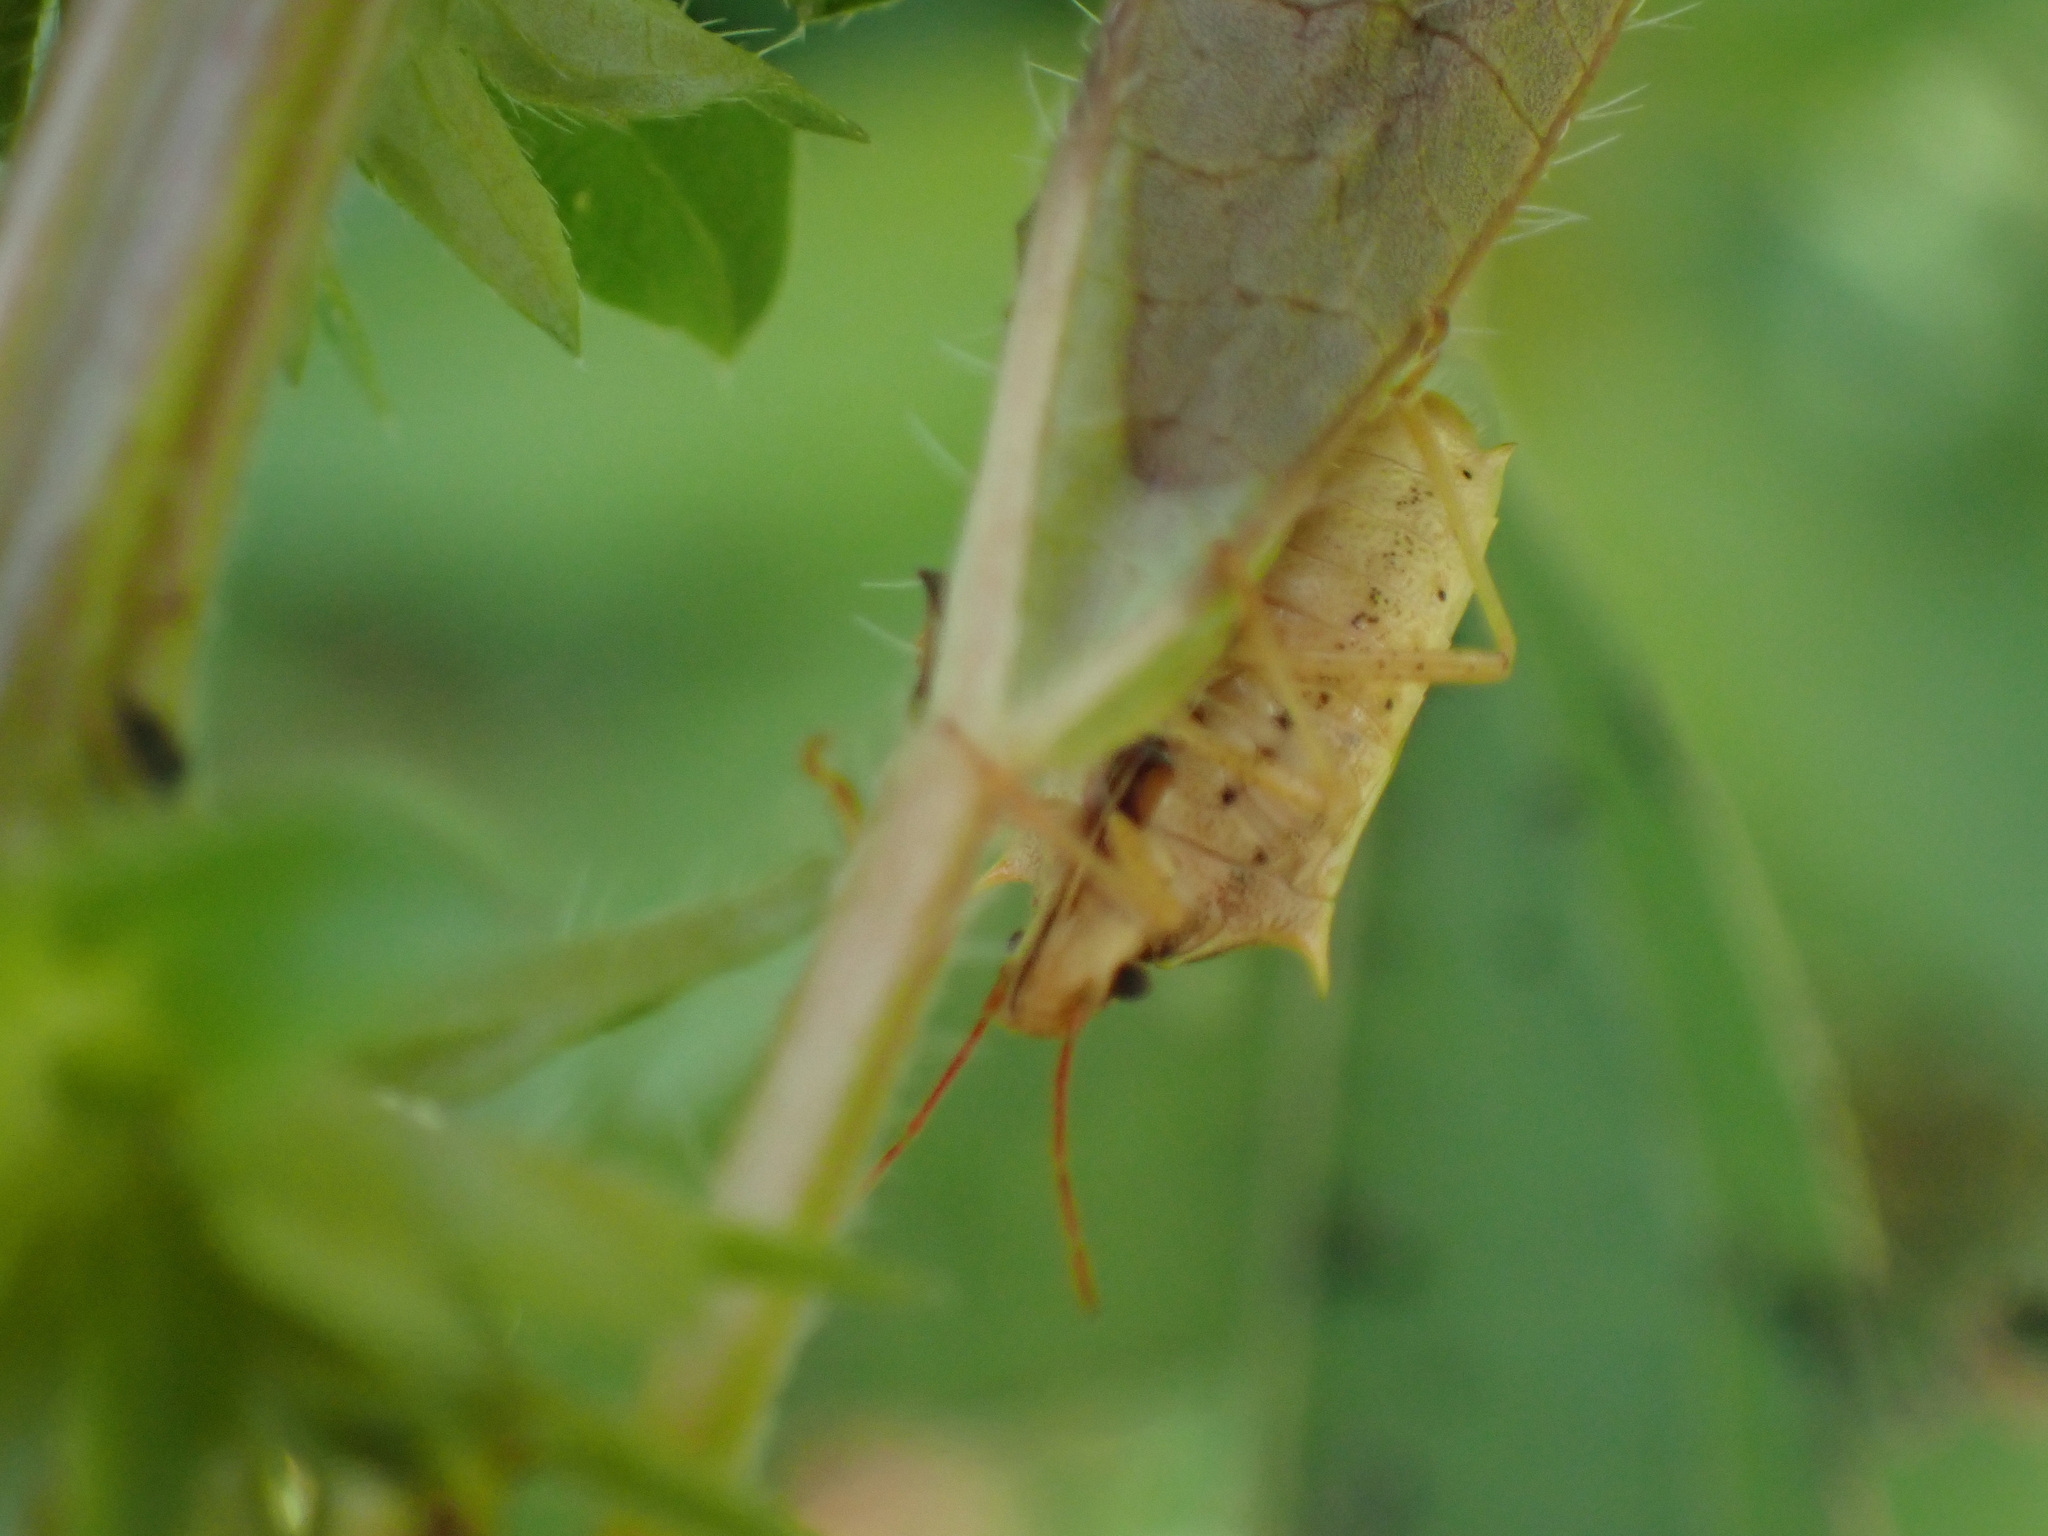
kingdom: Animalia
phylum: Arthropoda
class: Insecta
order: Hemiptera
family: Pentatomidae
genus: Oebalus
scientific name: Oebalus pugnax
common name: Rice stink bug
